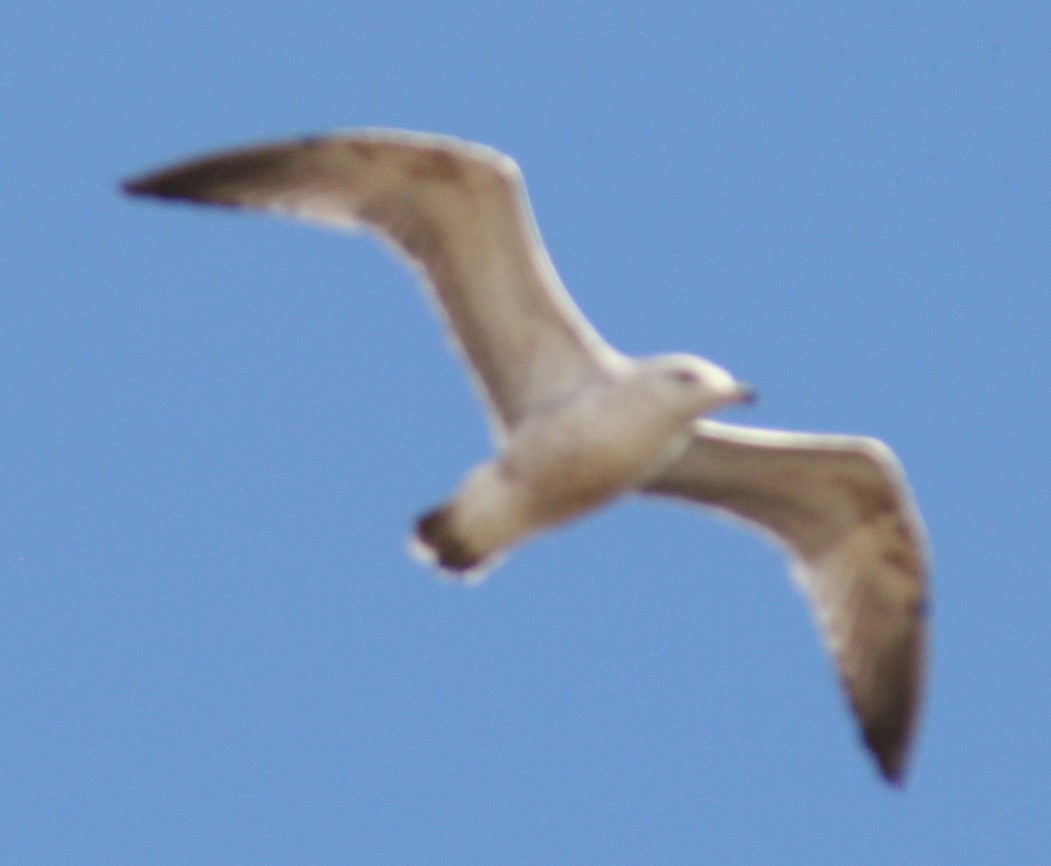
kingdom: Animalia
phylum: Chordata
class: Aves
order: Charadriiformes
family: Laridae
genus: Larus
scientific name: Larus argentatus
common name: Herring gull
